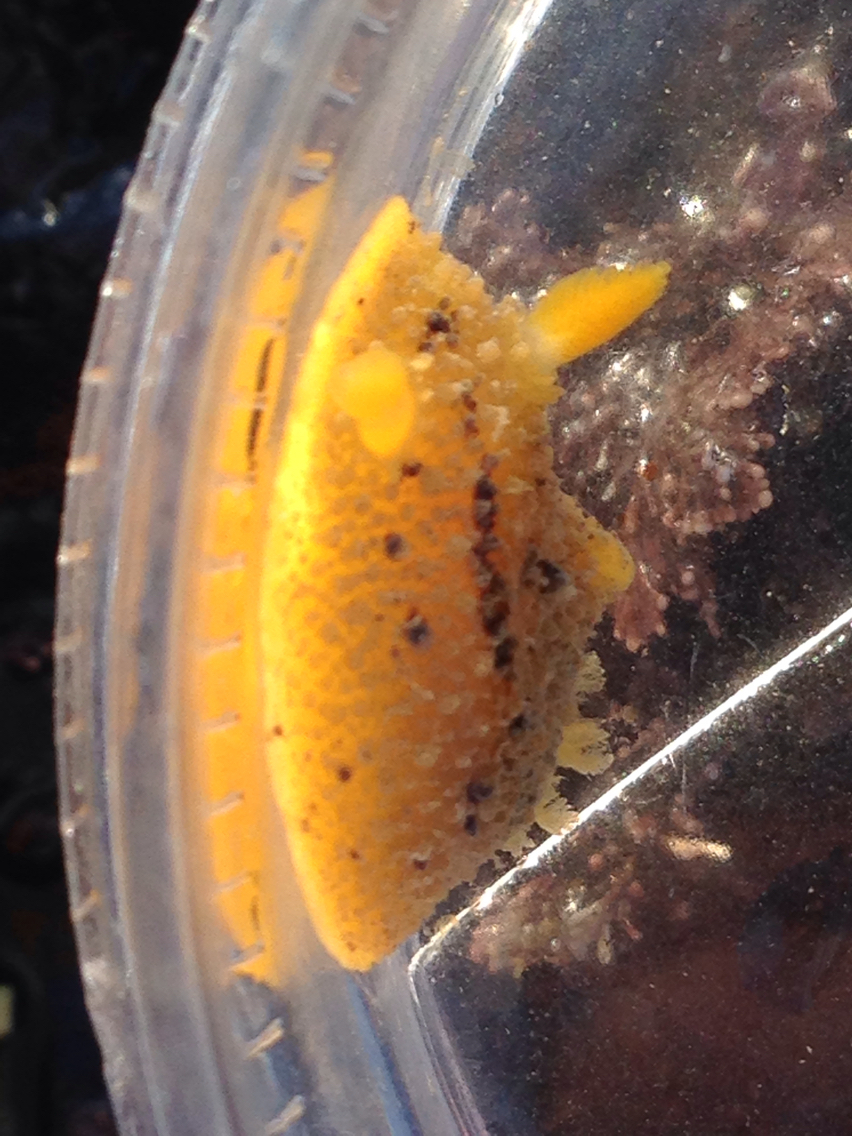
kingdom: Animalia
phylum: Mollusca
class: Gastropoda
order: Nudibranchia
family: Dorididae
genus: Doris
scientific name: Doris montereyensis
